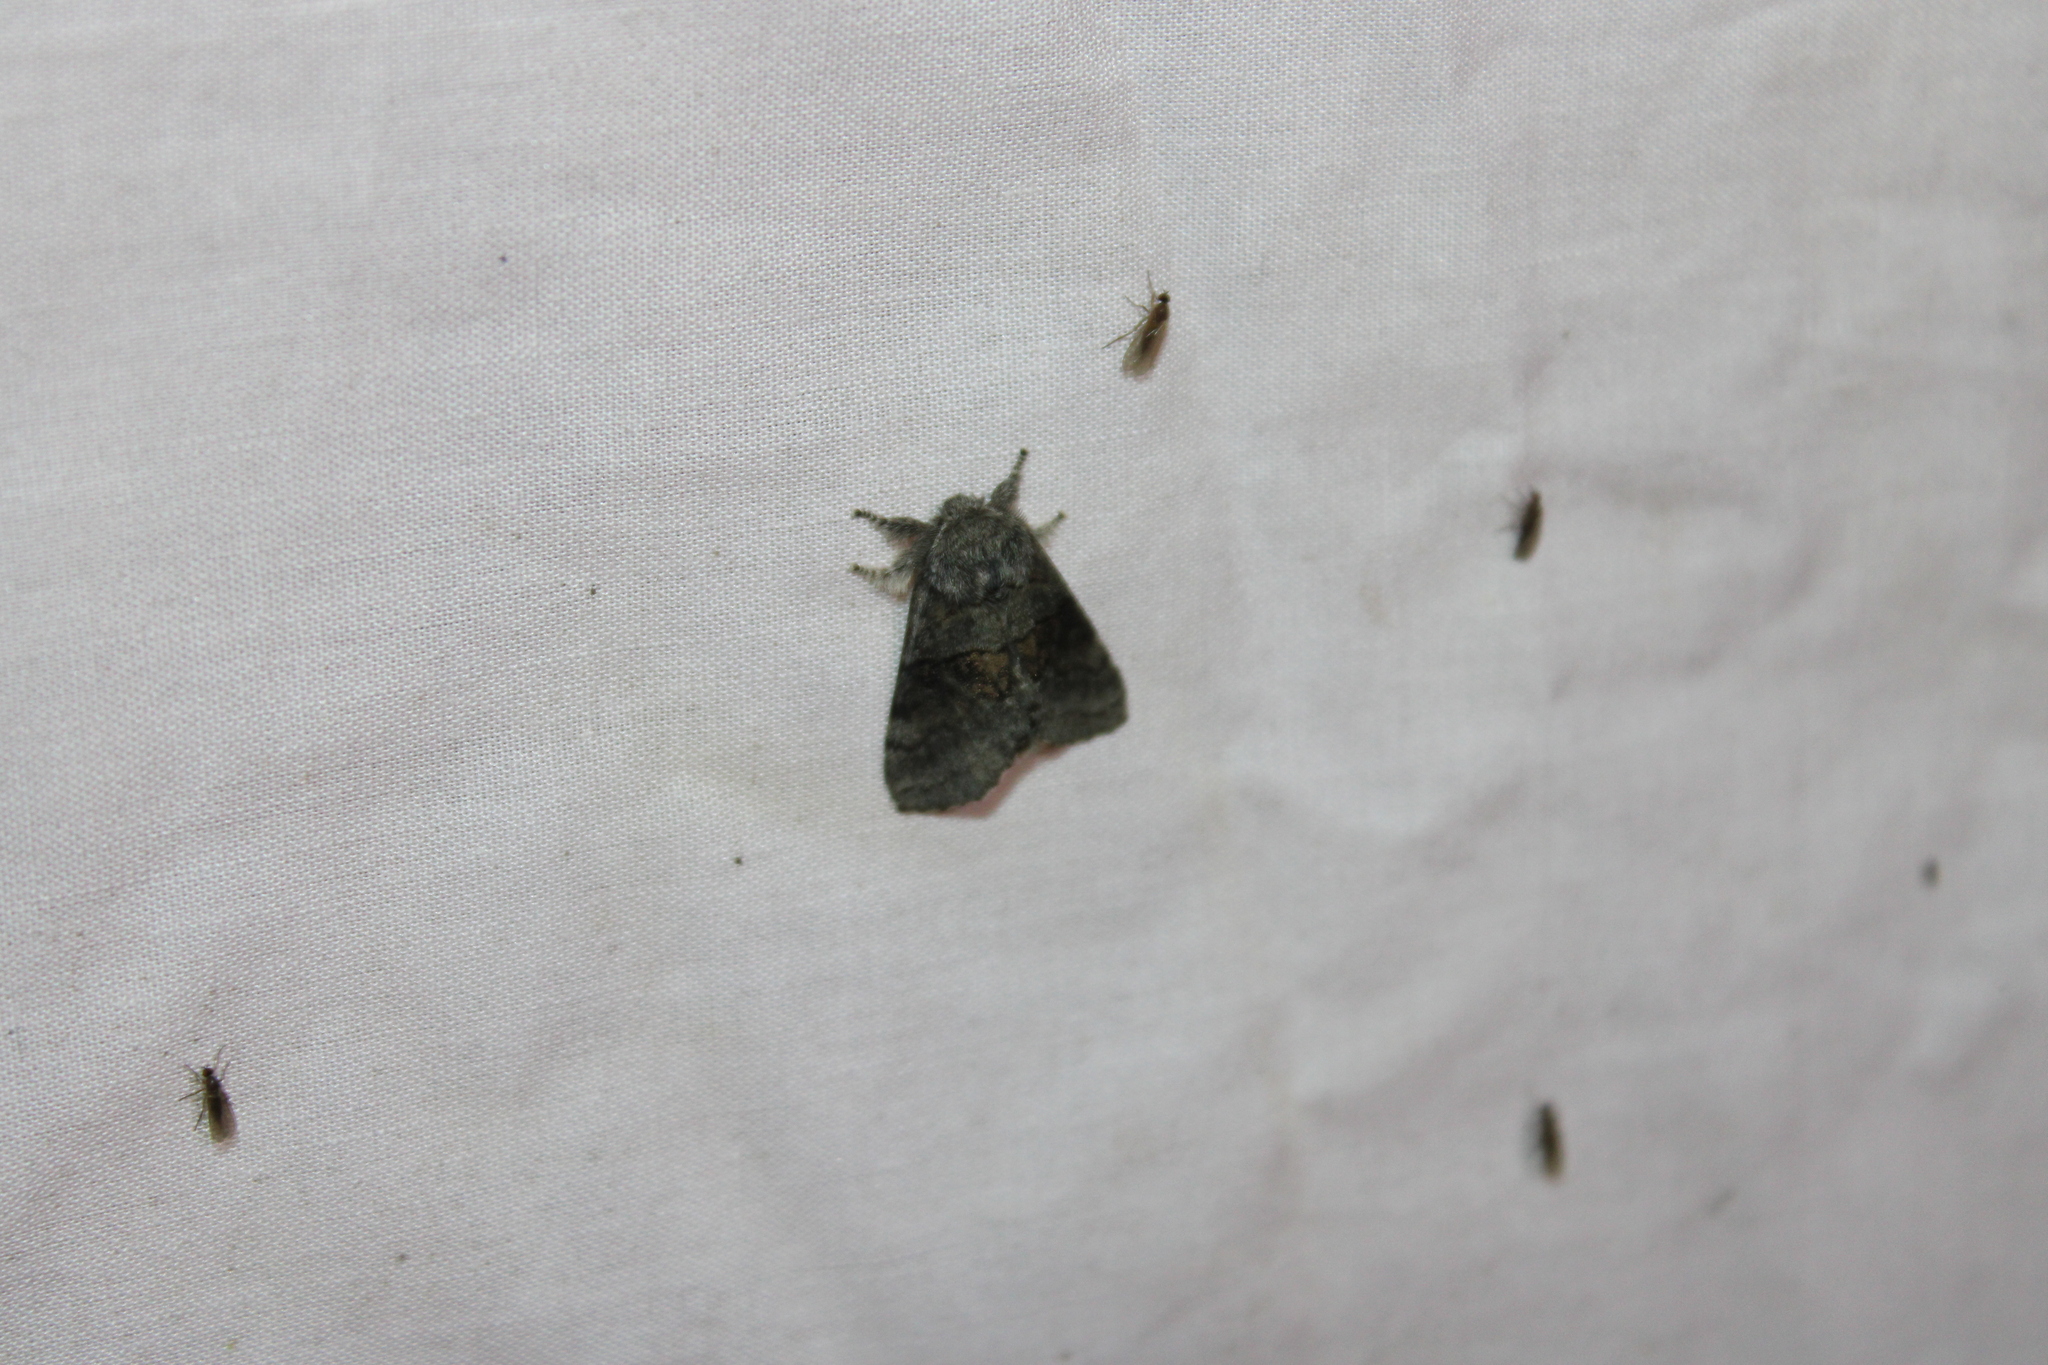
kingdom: Animalia
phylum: Arthropoda
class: Insecta
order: Lepidoptera
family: Notodontidae
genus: Gluphisia
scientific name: Gluphisia septentrionis
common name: Common gluphisia
